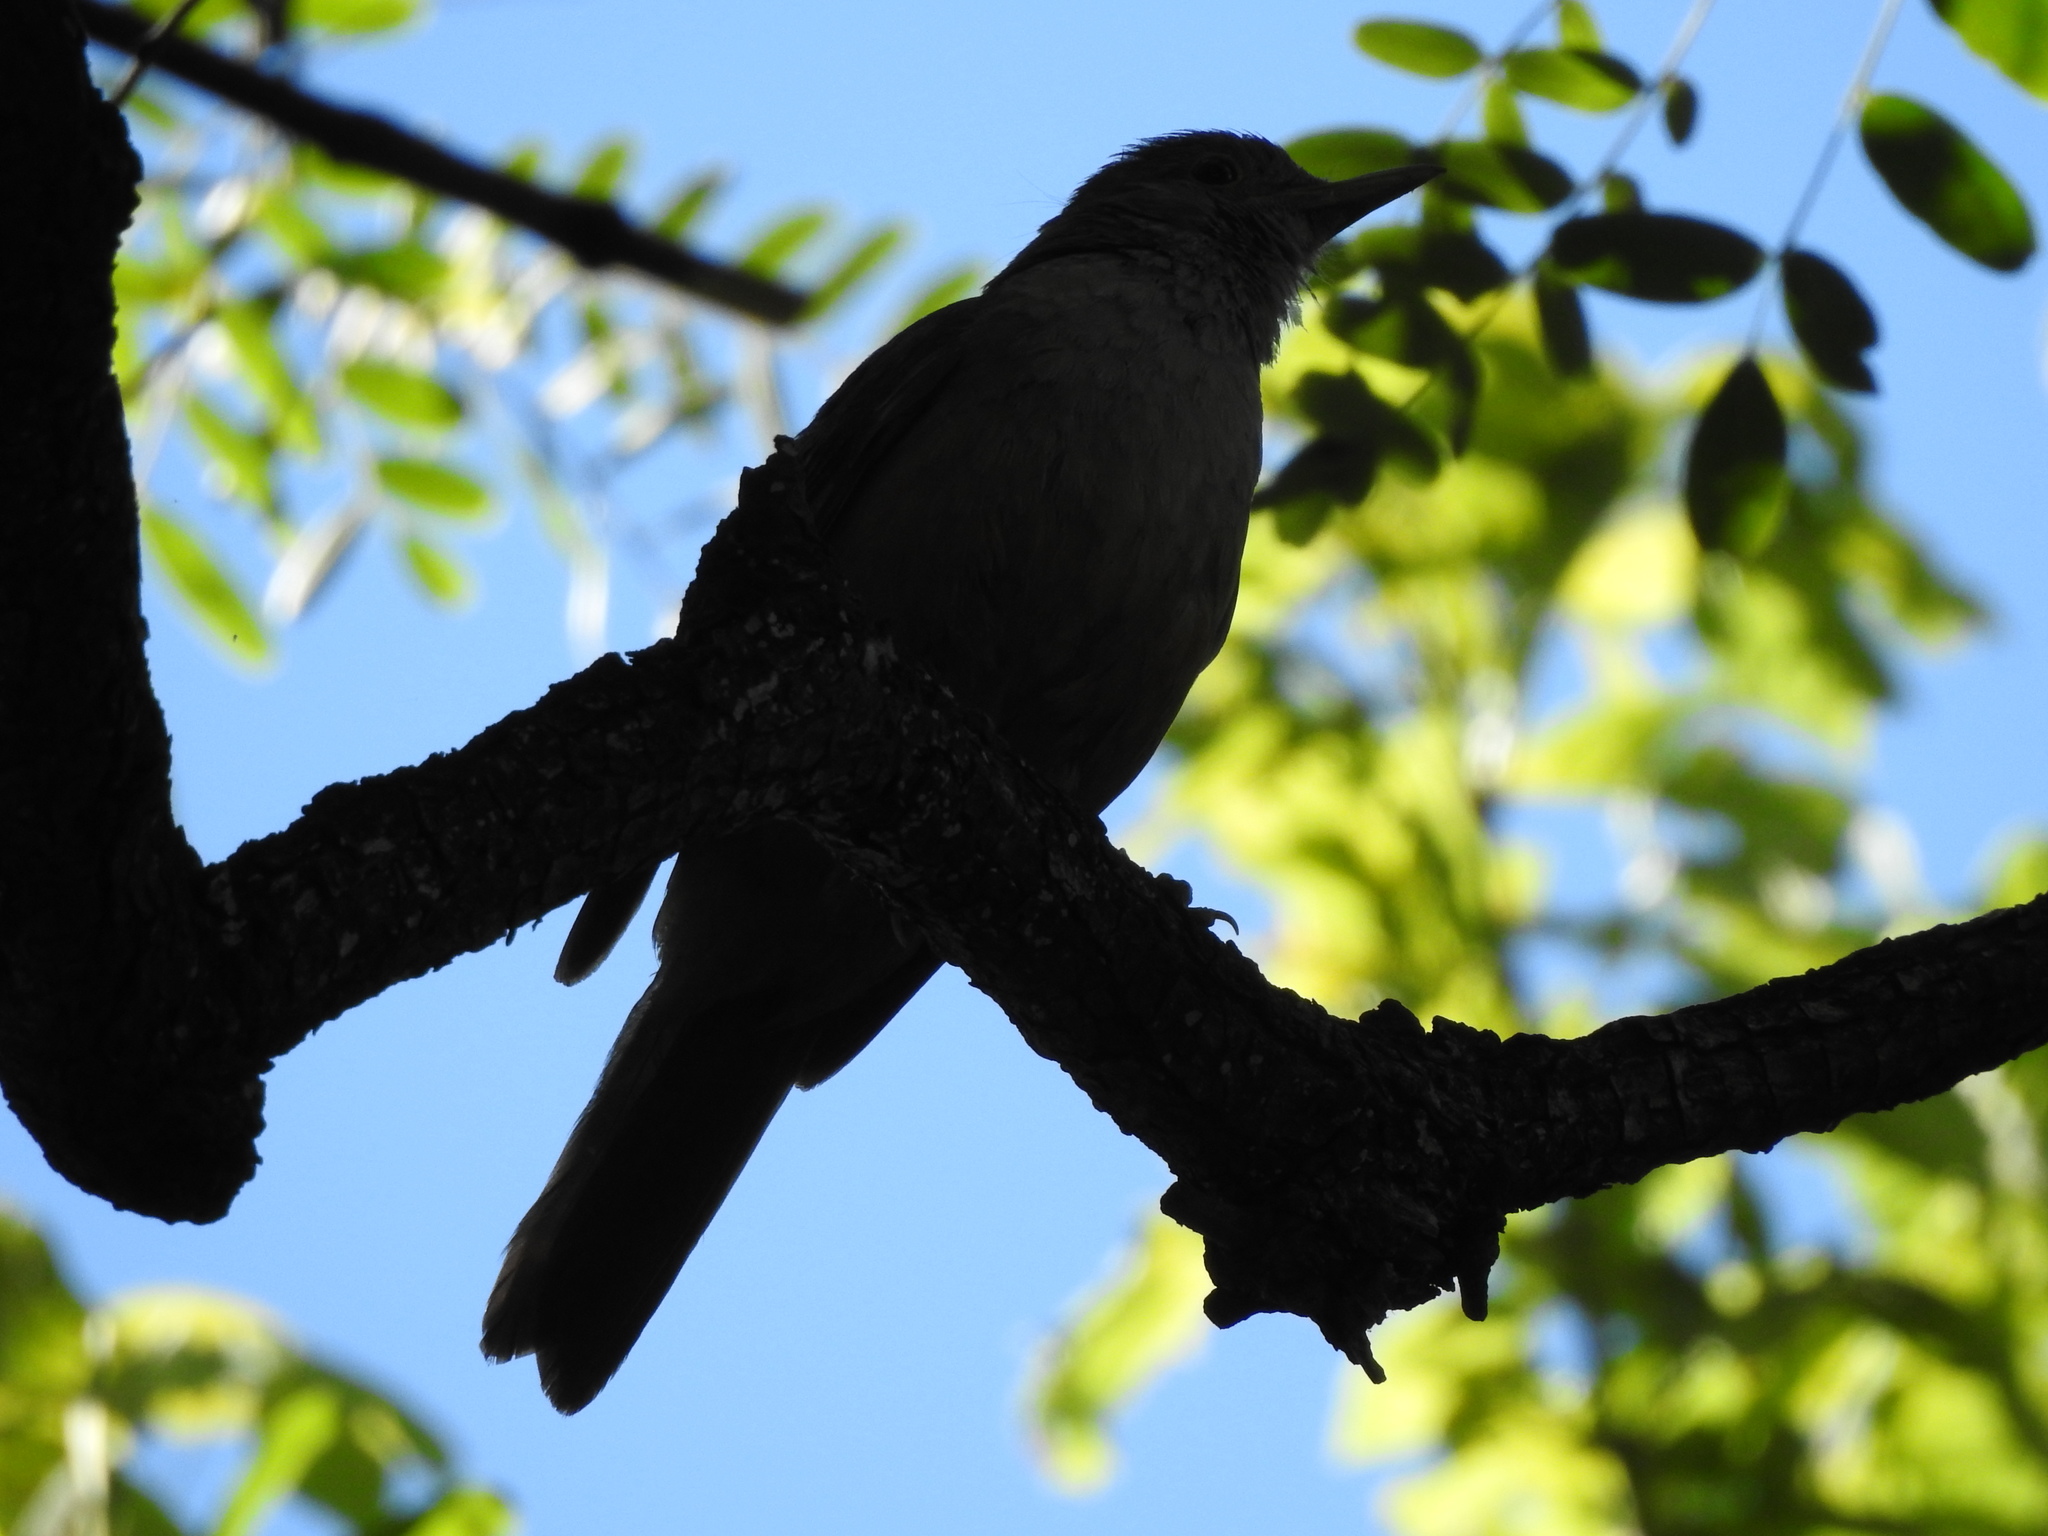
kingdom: Animalia
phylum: Chordata
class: Aves
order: Passeriformes
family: Turdidae
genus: Turdus
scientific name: Turdus rufiventris
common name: Rufous-bellied thrush
